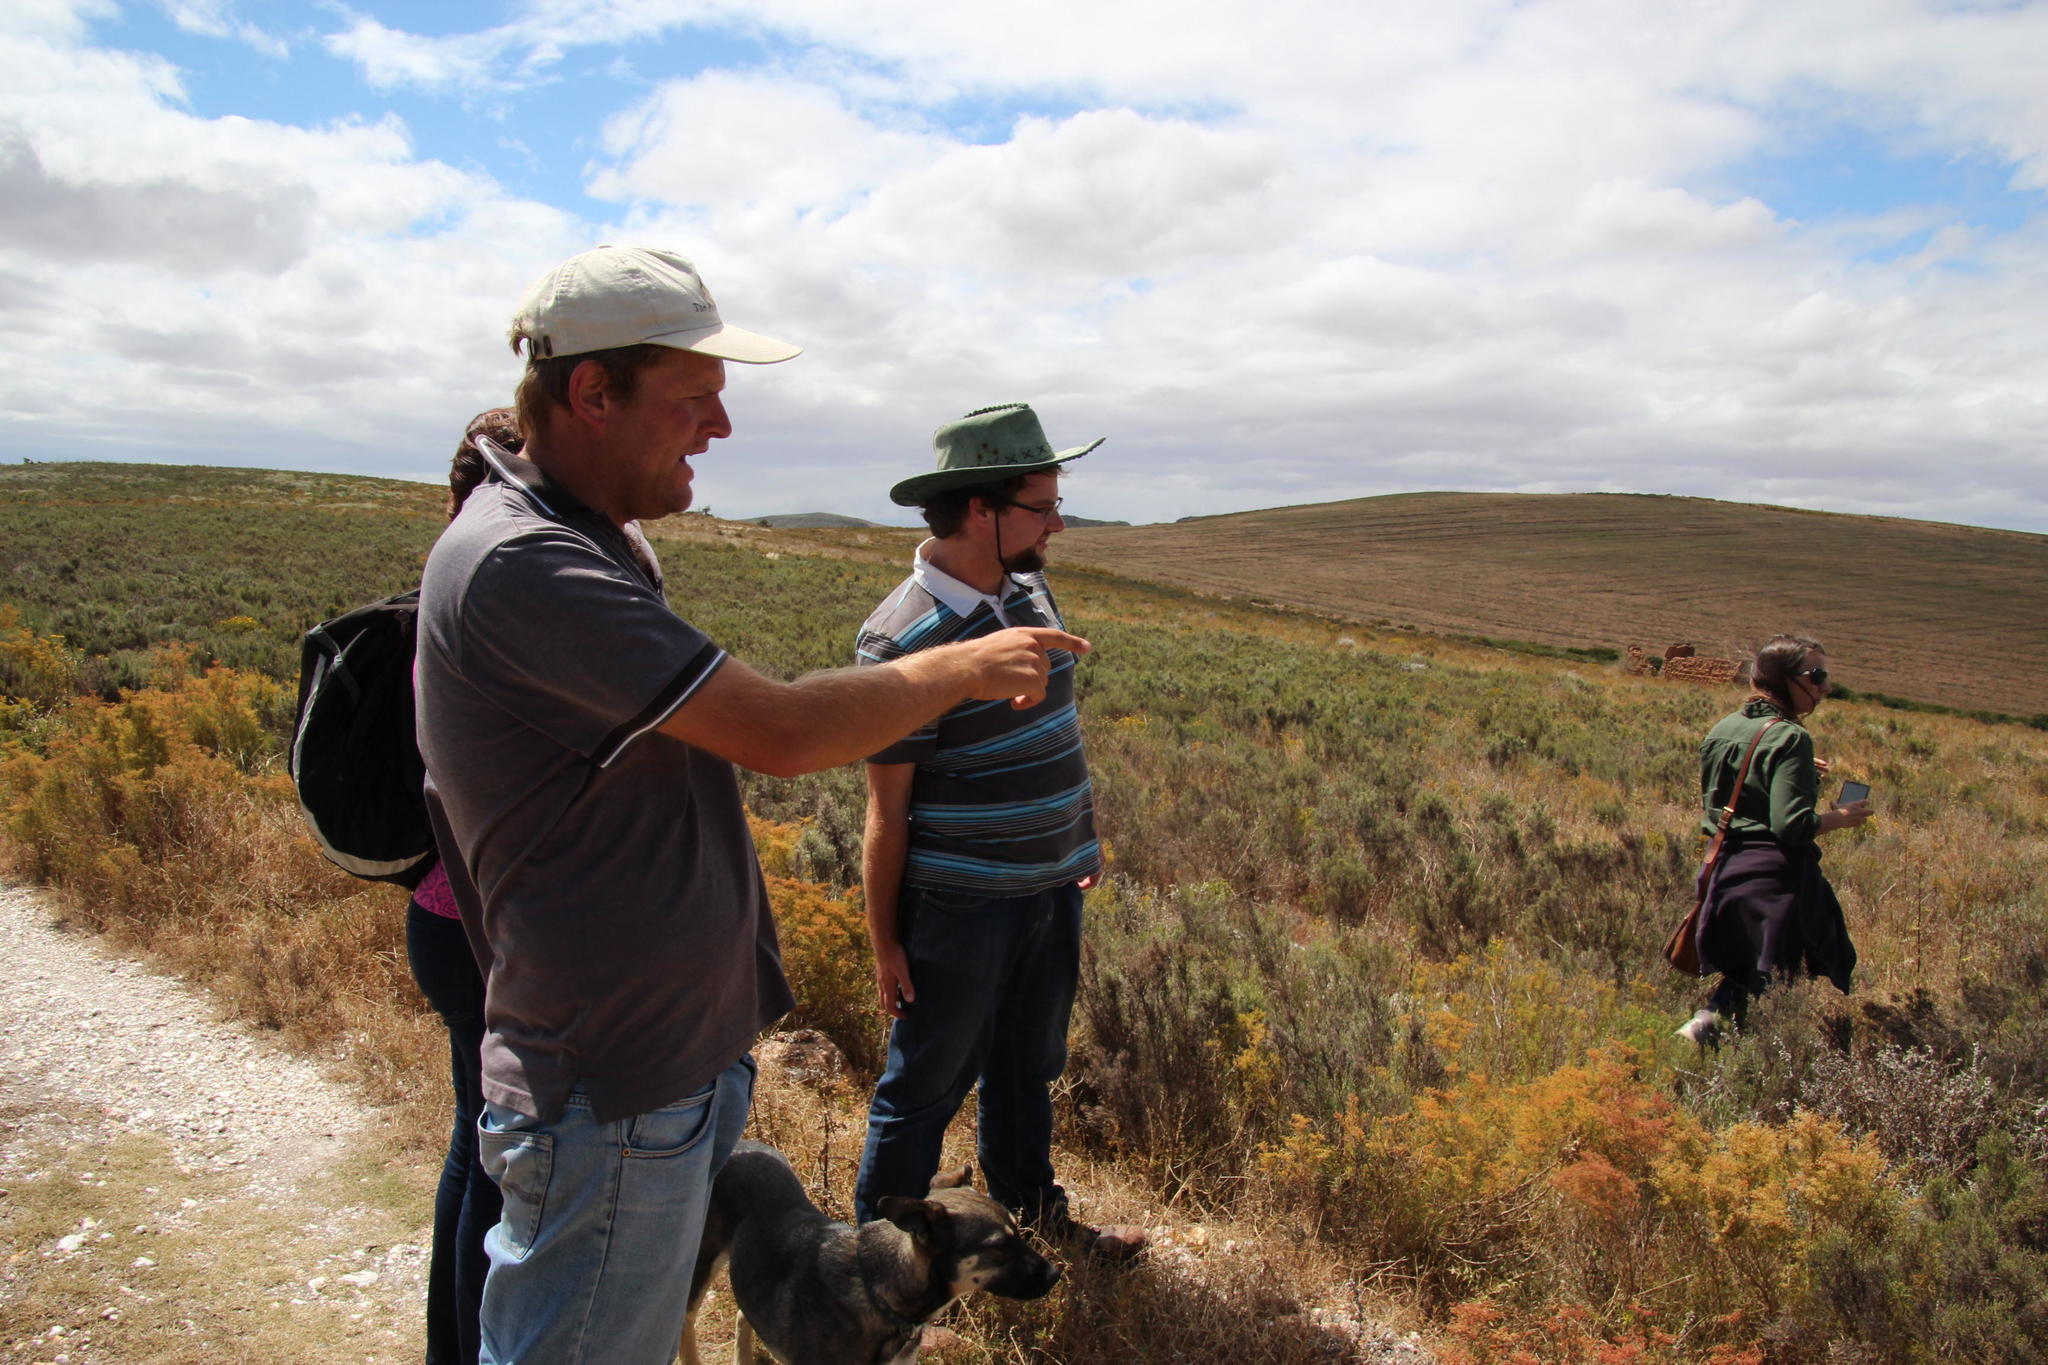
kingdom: Plantae
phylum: Tracheophyta
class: Magnoliopsida
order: Asterales
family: Asteraceae
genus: Dicerothamnus
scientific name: Dicerothamnus rhinocerotis
